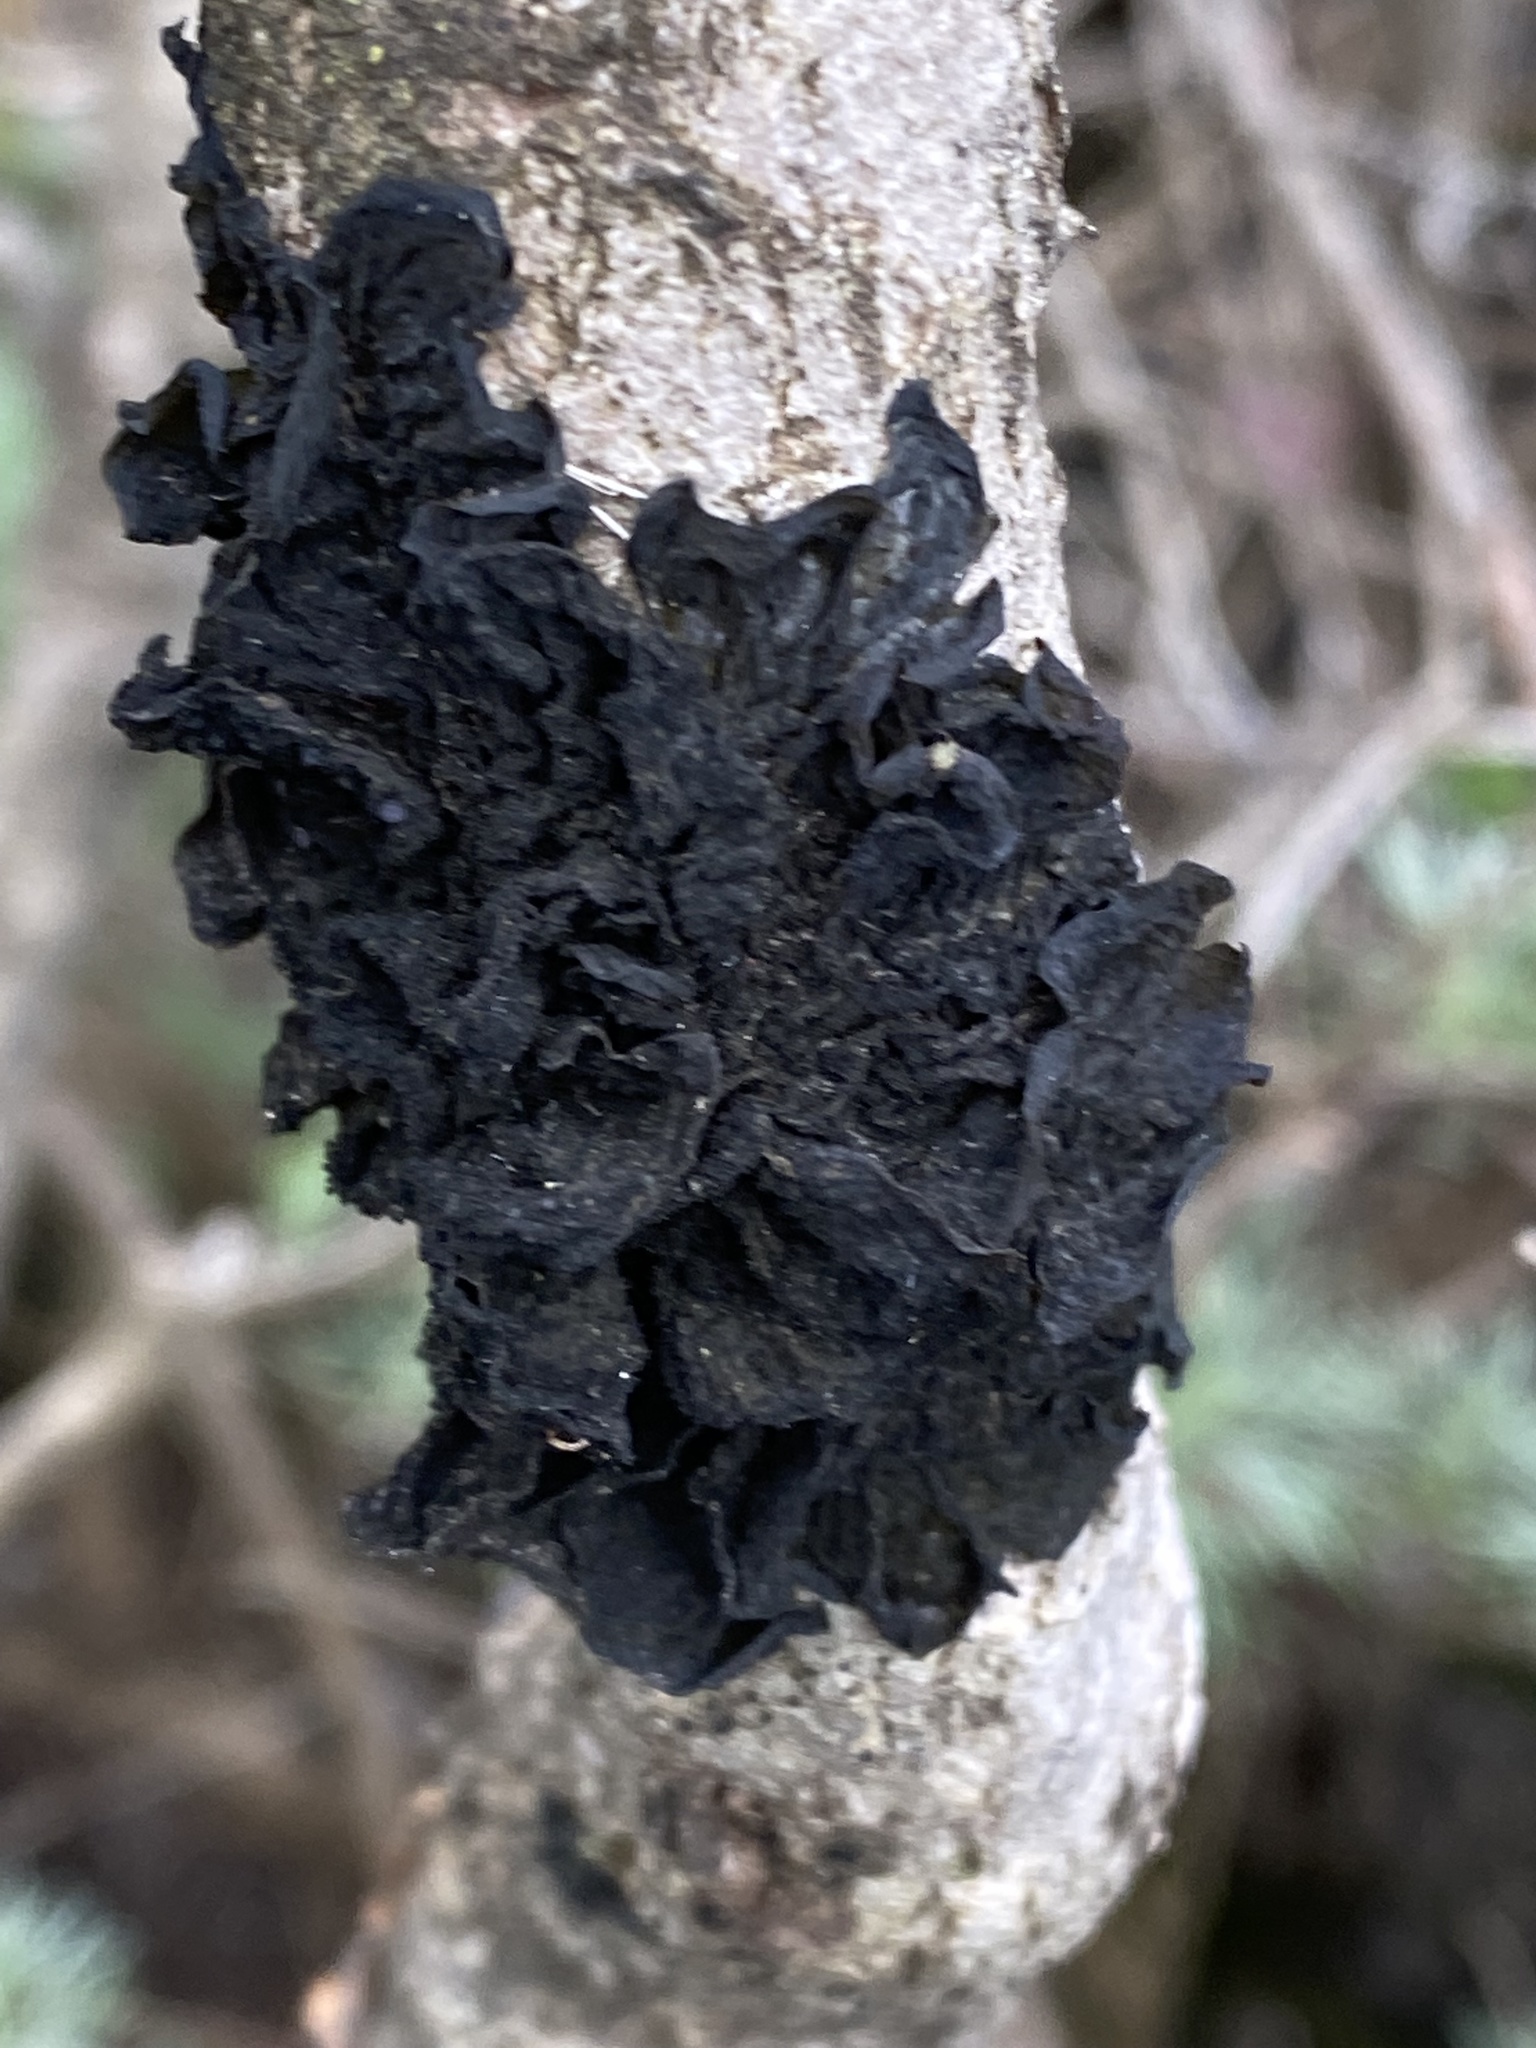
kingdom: Fungi
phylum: Ascomycota
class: Lecanoromycetes
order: Peltigerales
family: Collemataceae
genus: Collema
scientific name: Collema furfuraceum
